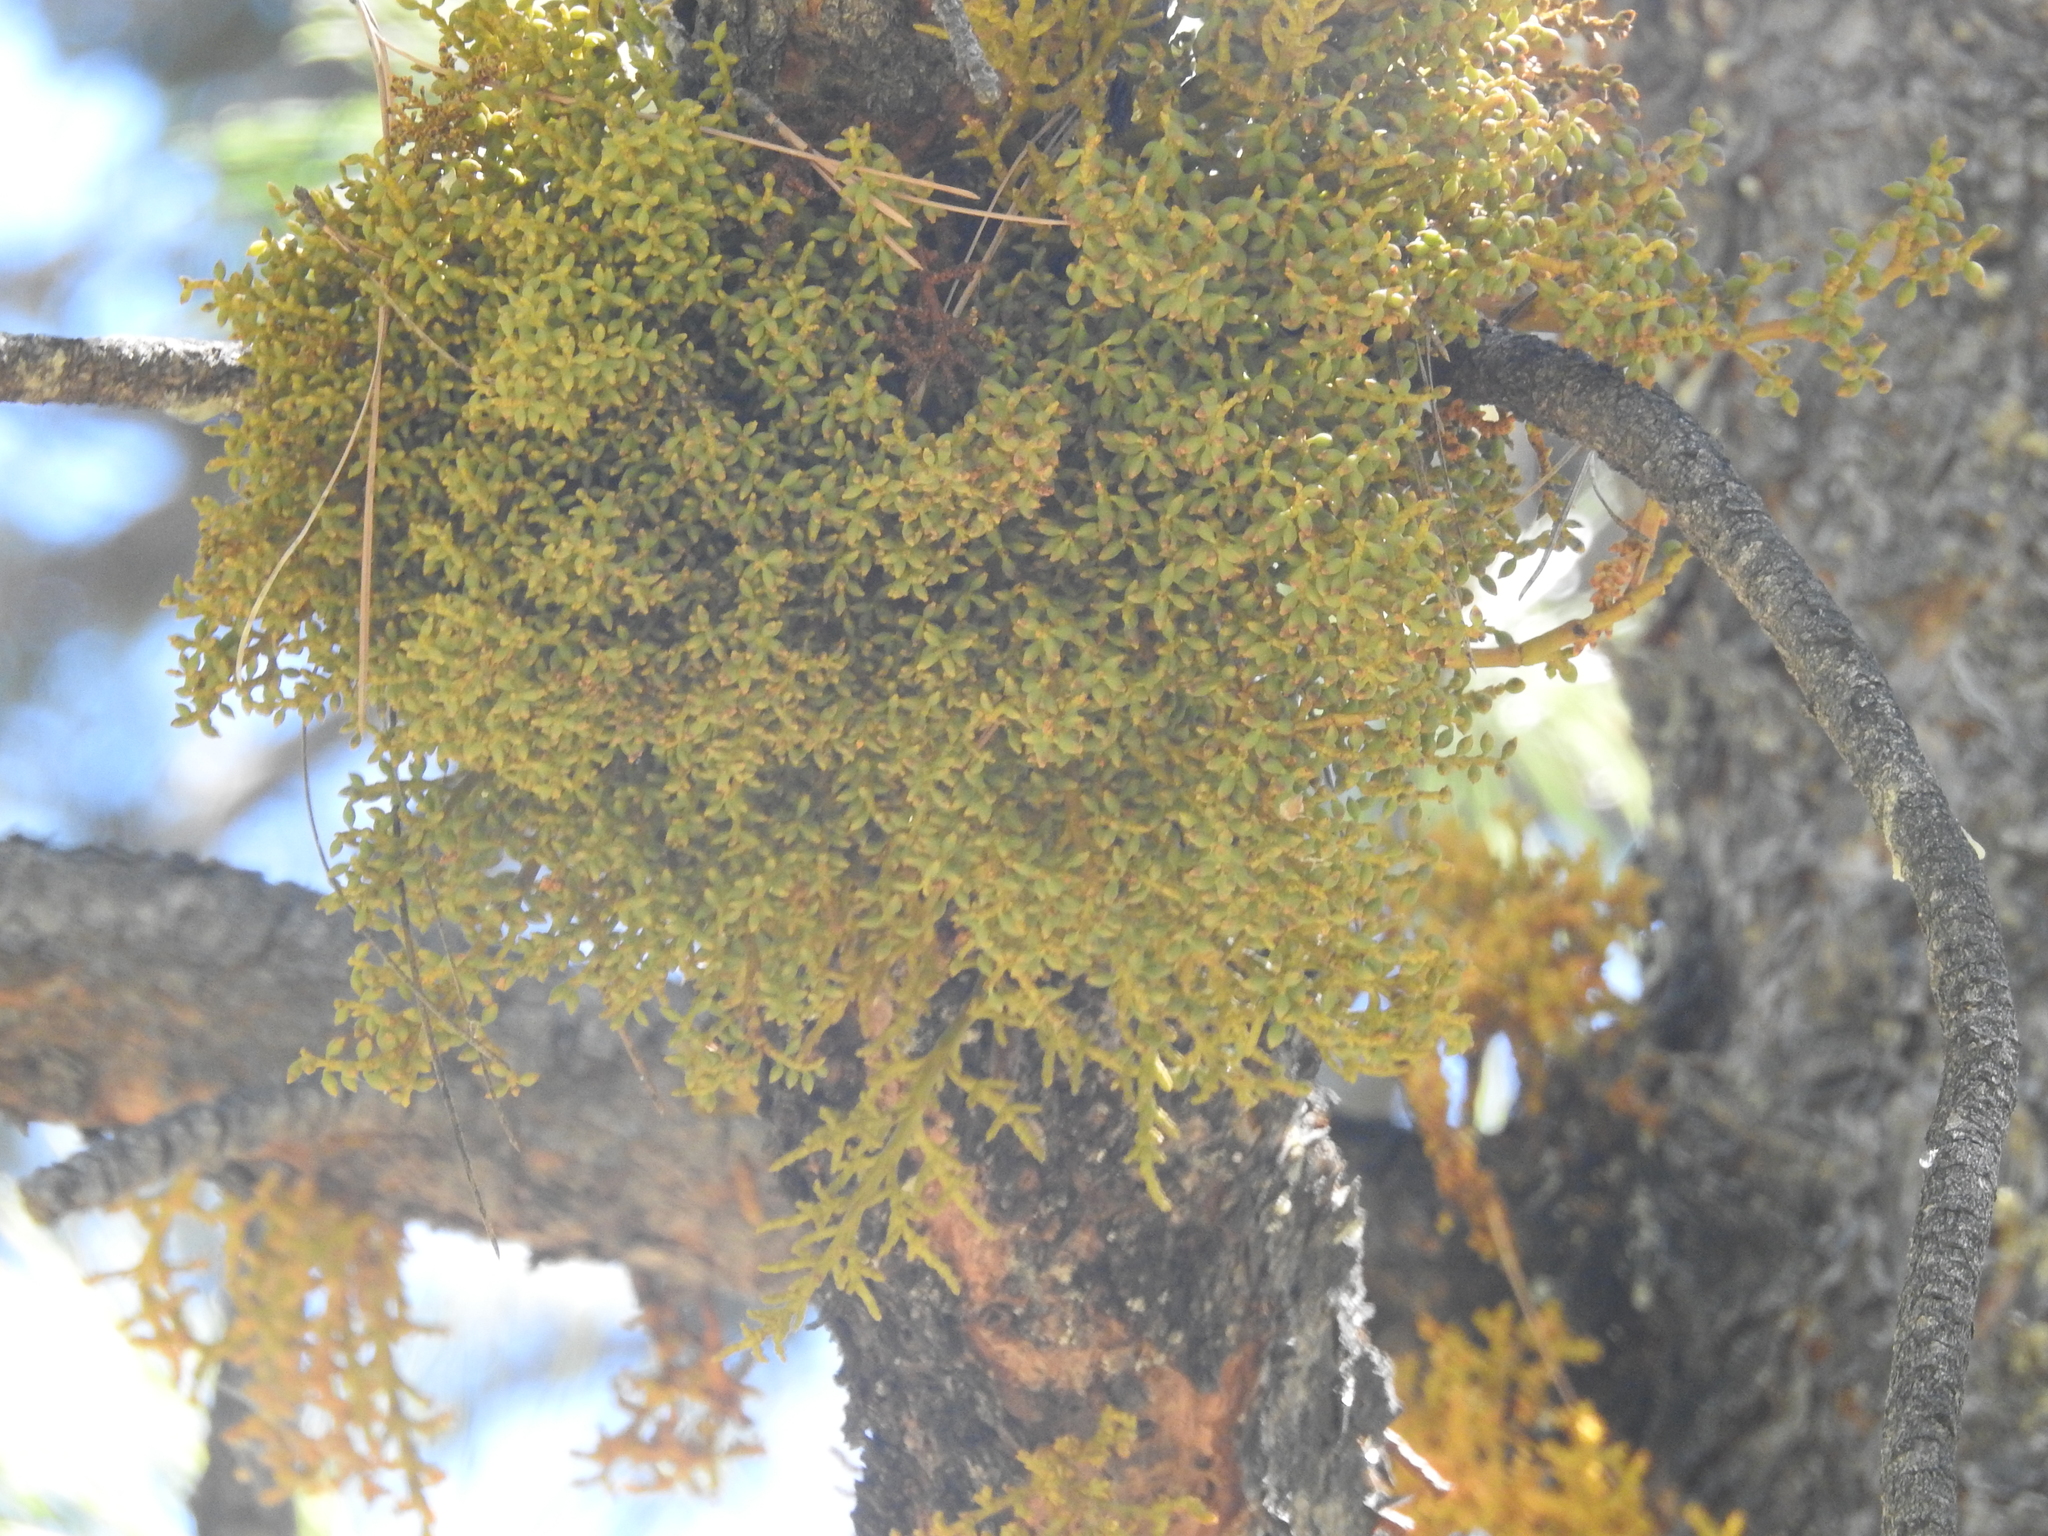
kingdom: Plantae
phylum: Tracheophyta
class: Magnoliopsida
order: Santalales
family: Viscaceae
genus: Arceuthobium
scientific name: Arceuthobium vaginatum
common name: Southwestern dwarf-mistletoe
